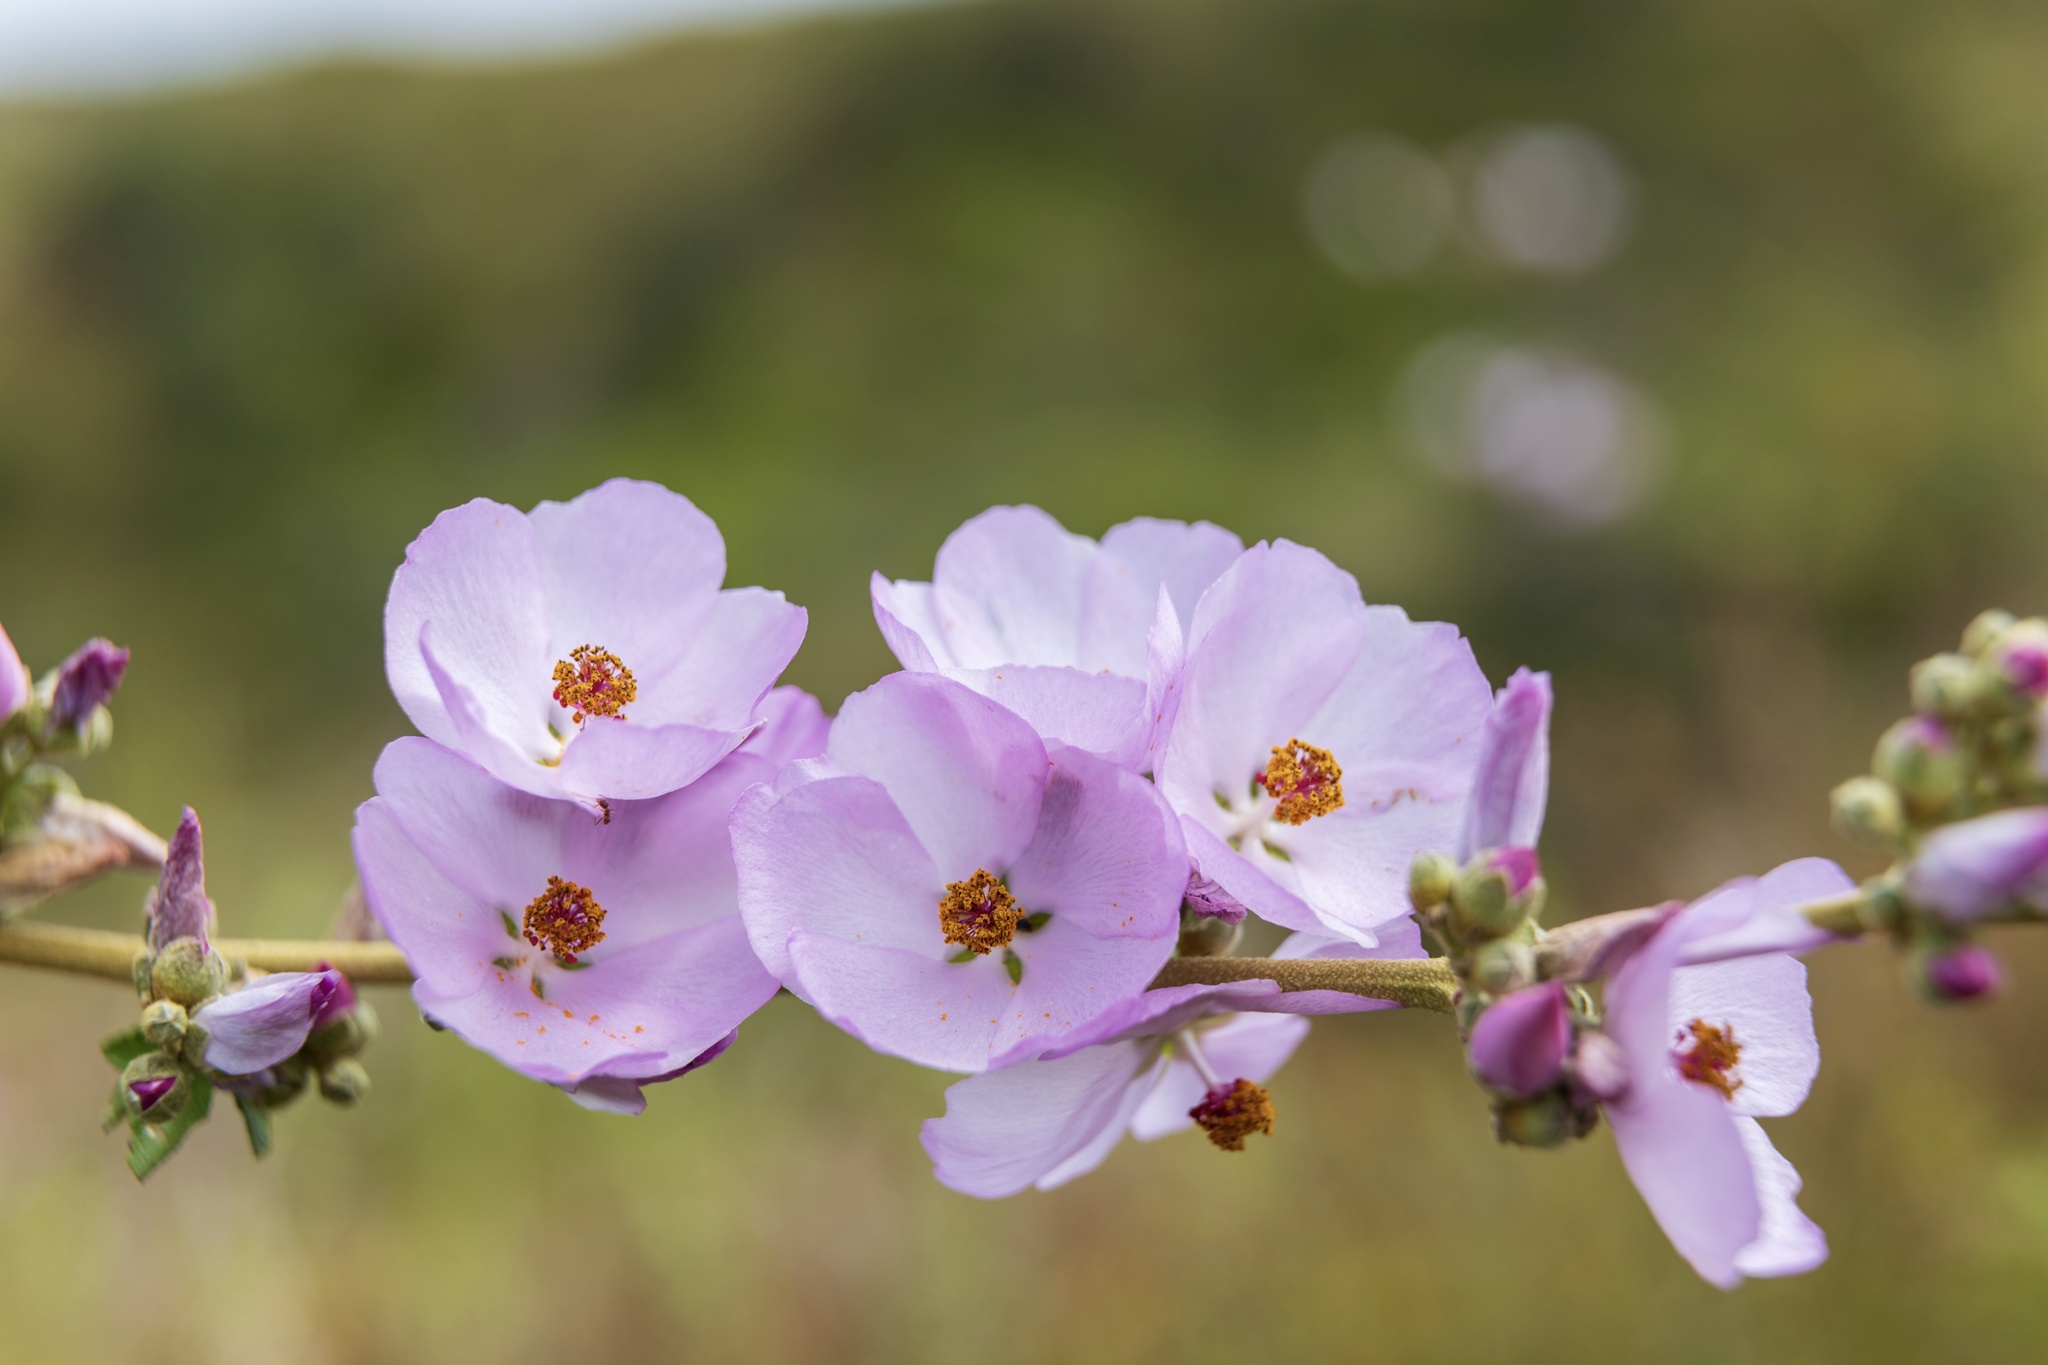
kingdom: Plantae
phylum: Tracheophyta
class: Magnoliopsida
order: Malvales
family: Malvaceae
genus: Malacothamnus
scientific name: Malacothamnus fasciculatus
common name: Sant cruz island bush-mallow
